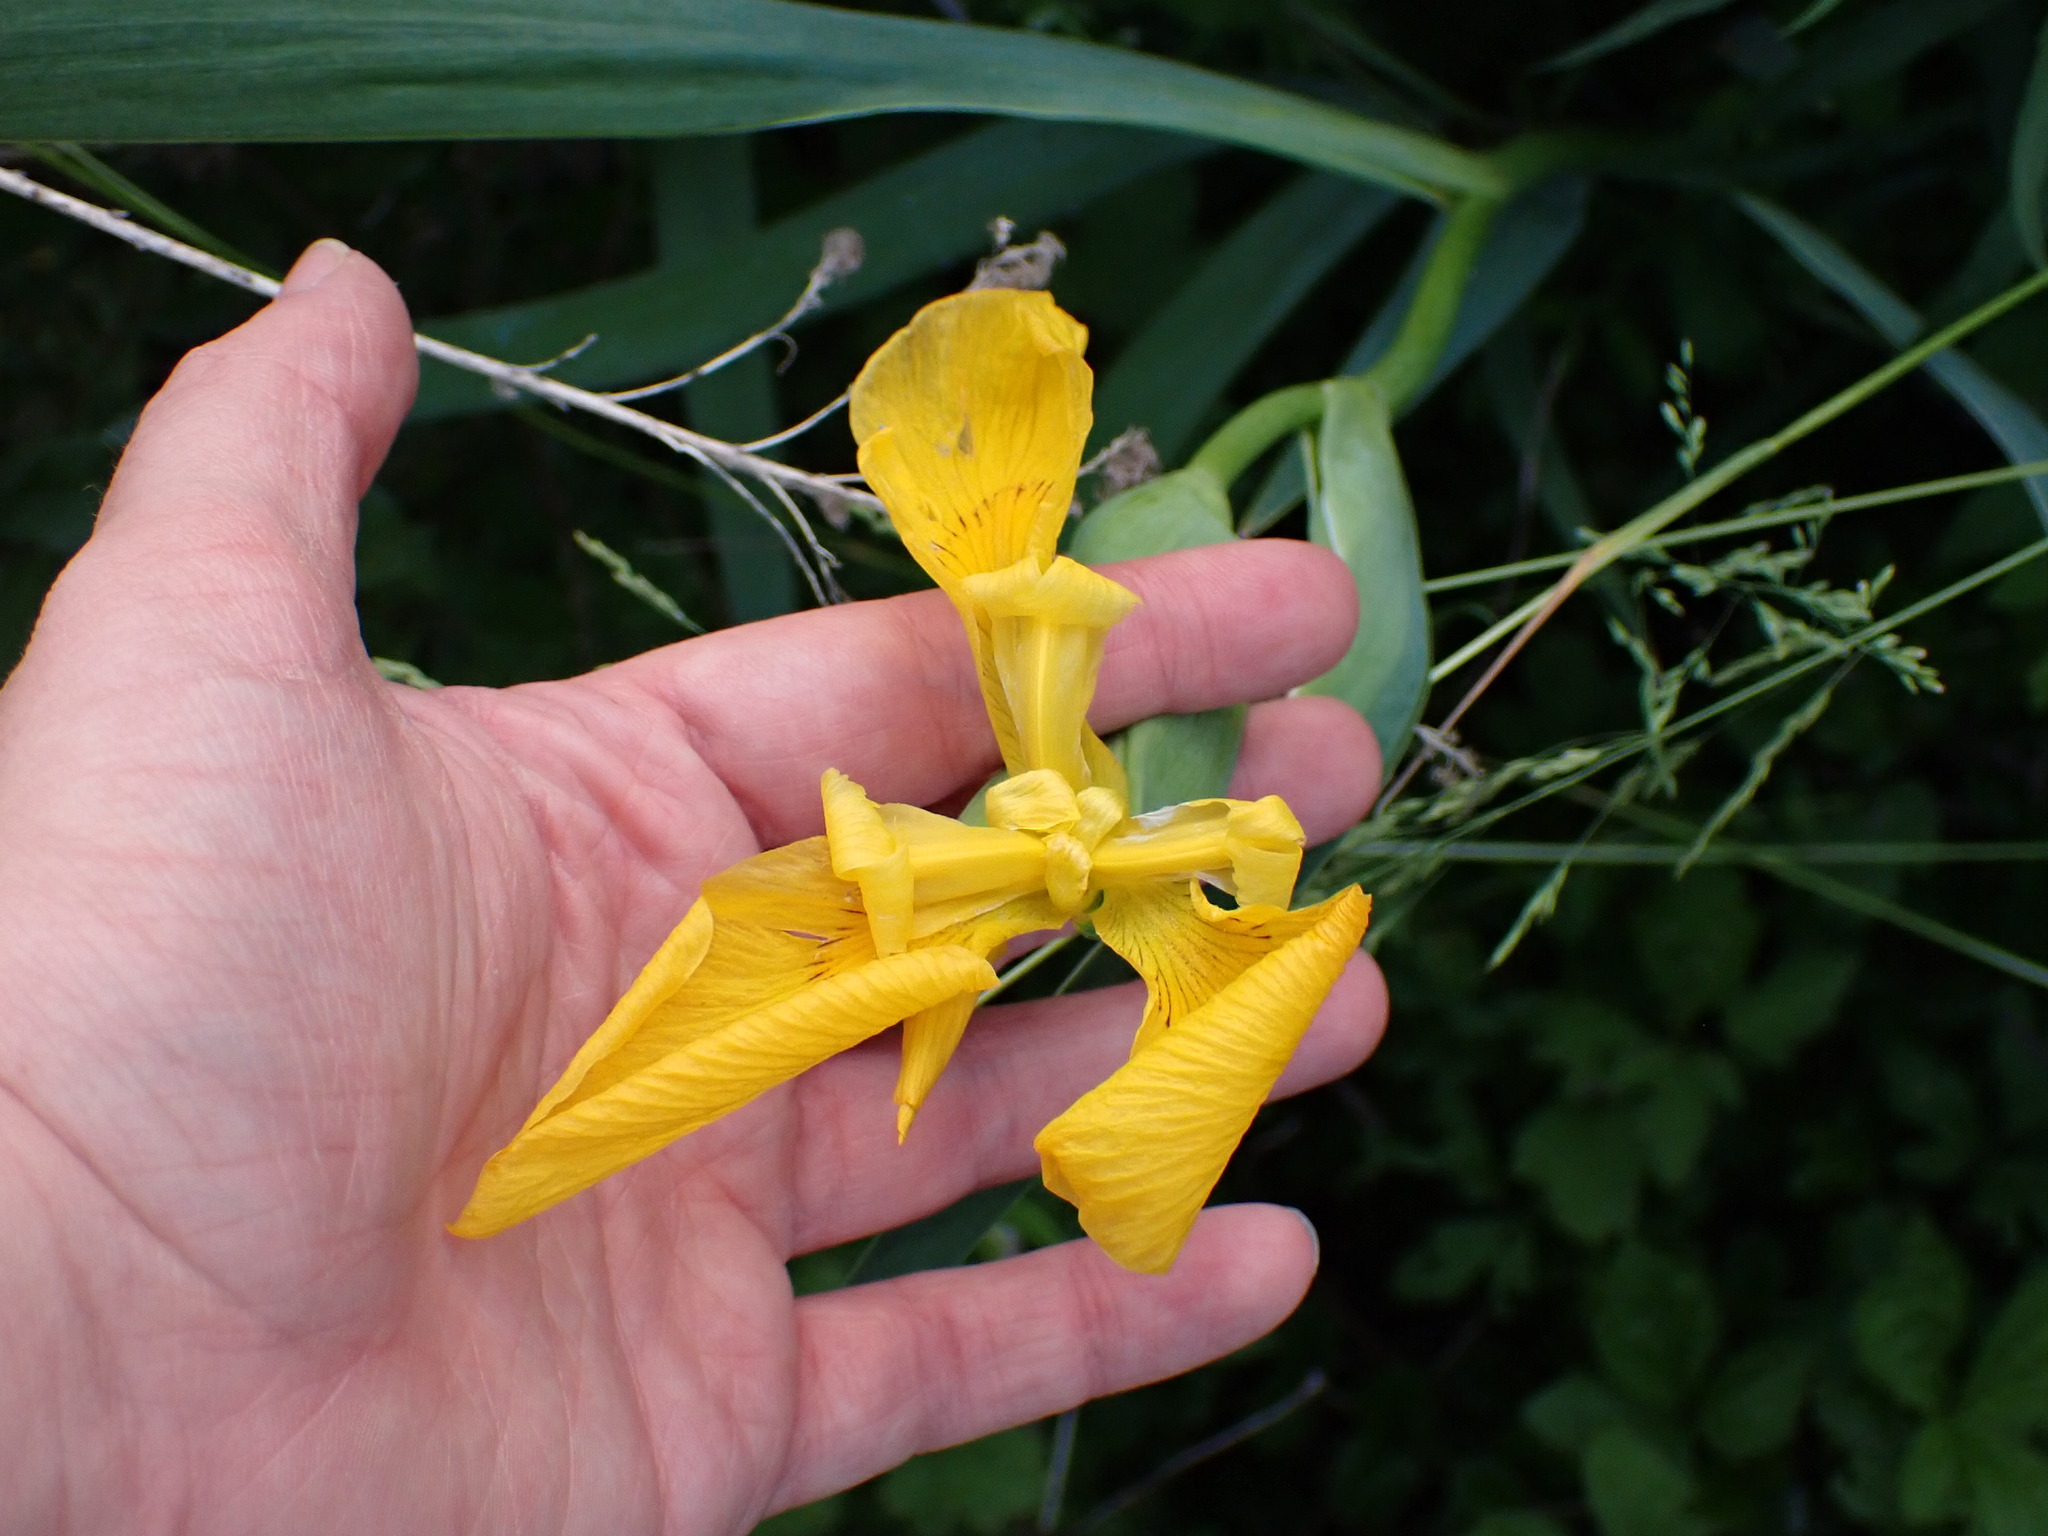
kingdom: Plantae
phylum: Tracheophyta
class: Liliopsida
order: Asparagales
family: Iridaceae
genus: Iris
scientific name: Iris pseudacorus
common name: Yellow flag
